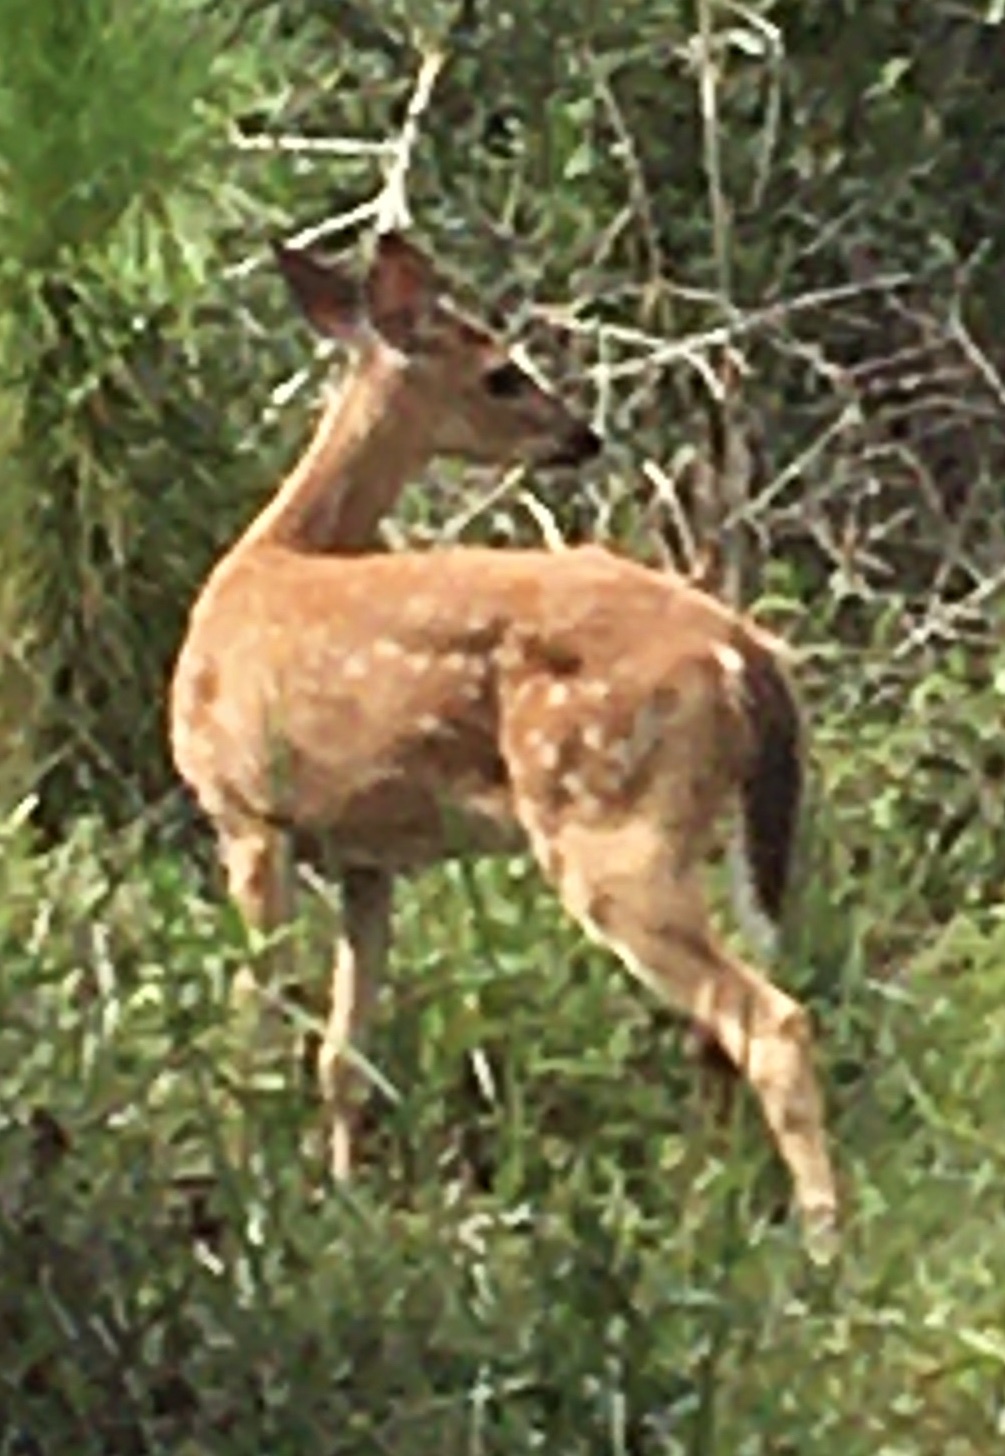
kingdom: Animalia
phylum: Chordata
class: Mammalia
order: Artiodactyla
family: Cervidae
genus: Odocoileus
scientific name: Odocoileus virginianus
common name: White-tailed deer
